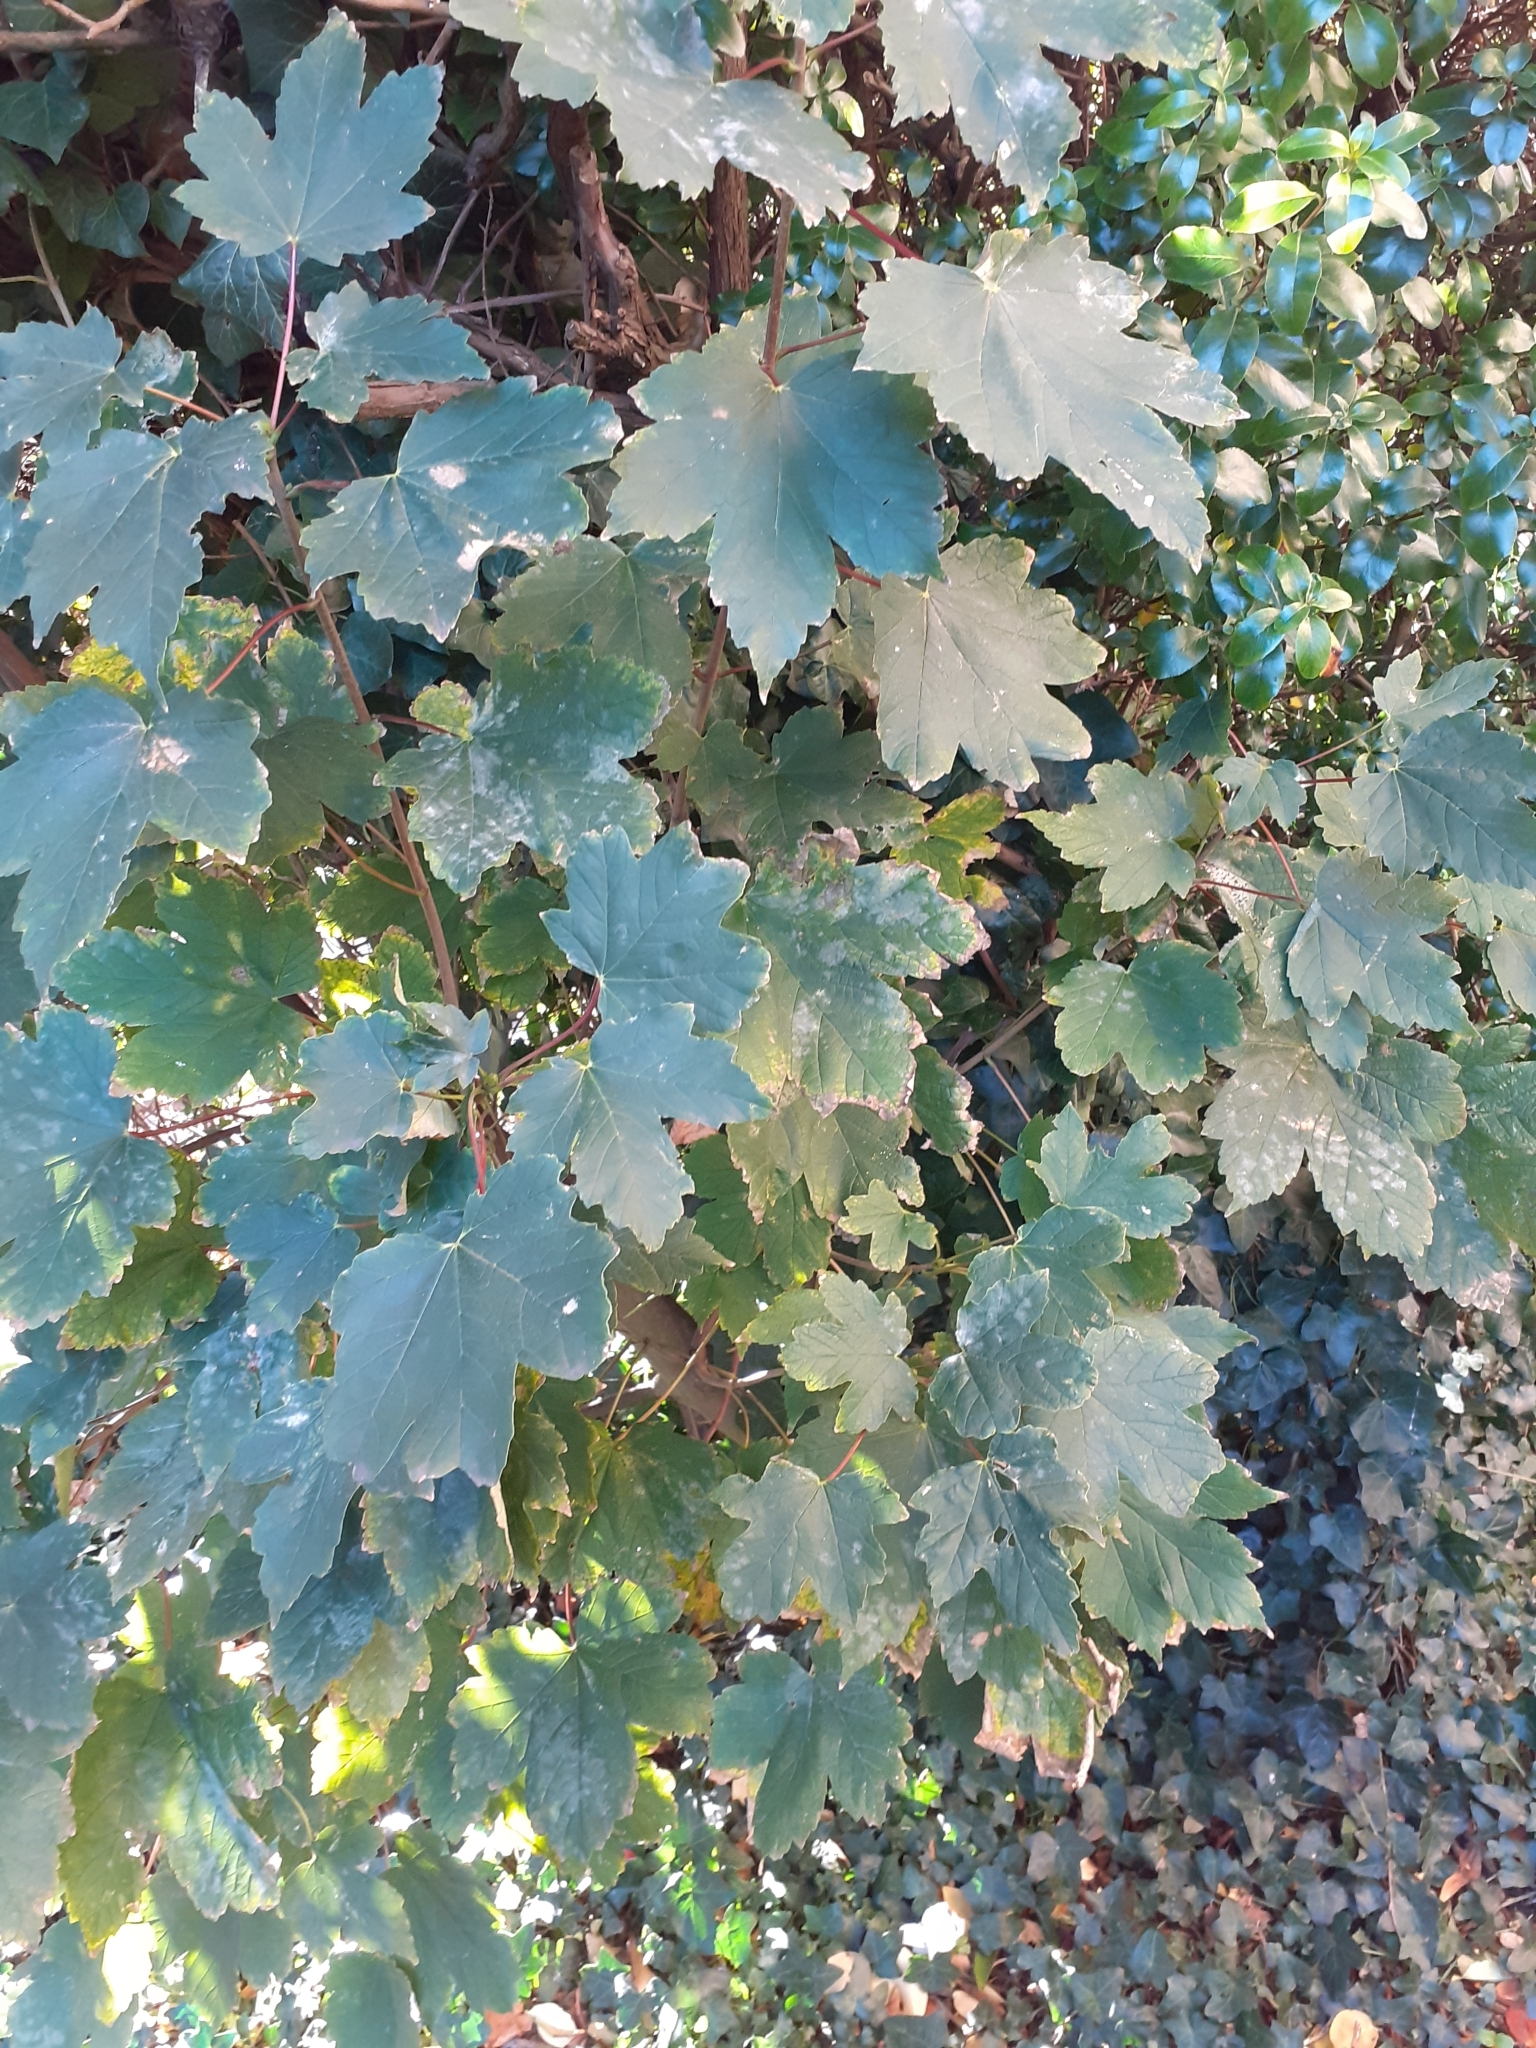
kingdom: Plantae
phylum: Tracheophyta
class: Magnoliopsida
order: Sapindales
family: Sapindaceae
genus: Acer
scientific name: Acer pseudoplatanus
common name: Sycamore
